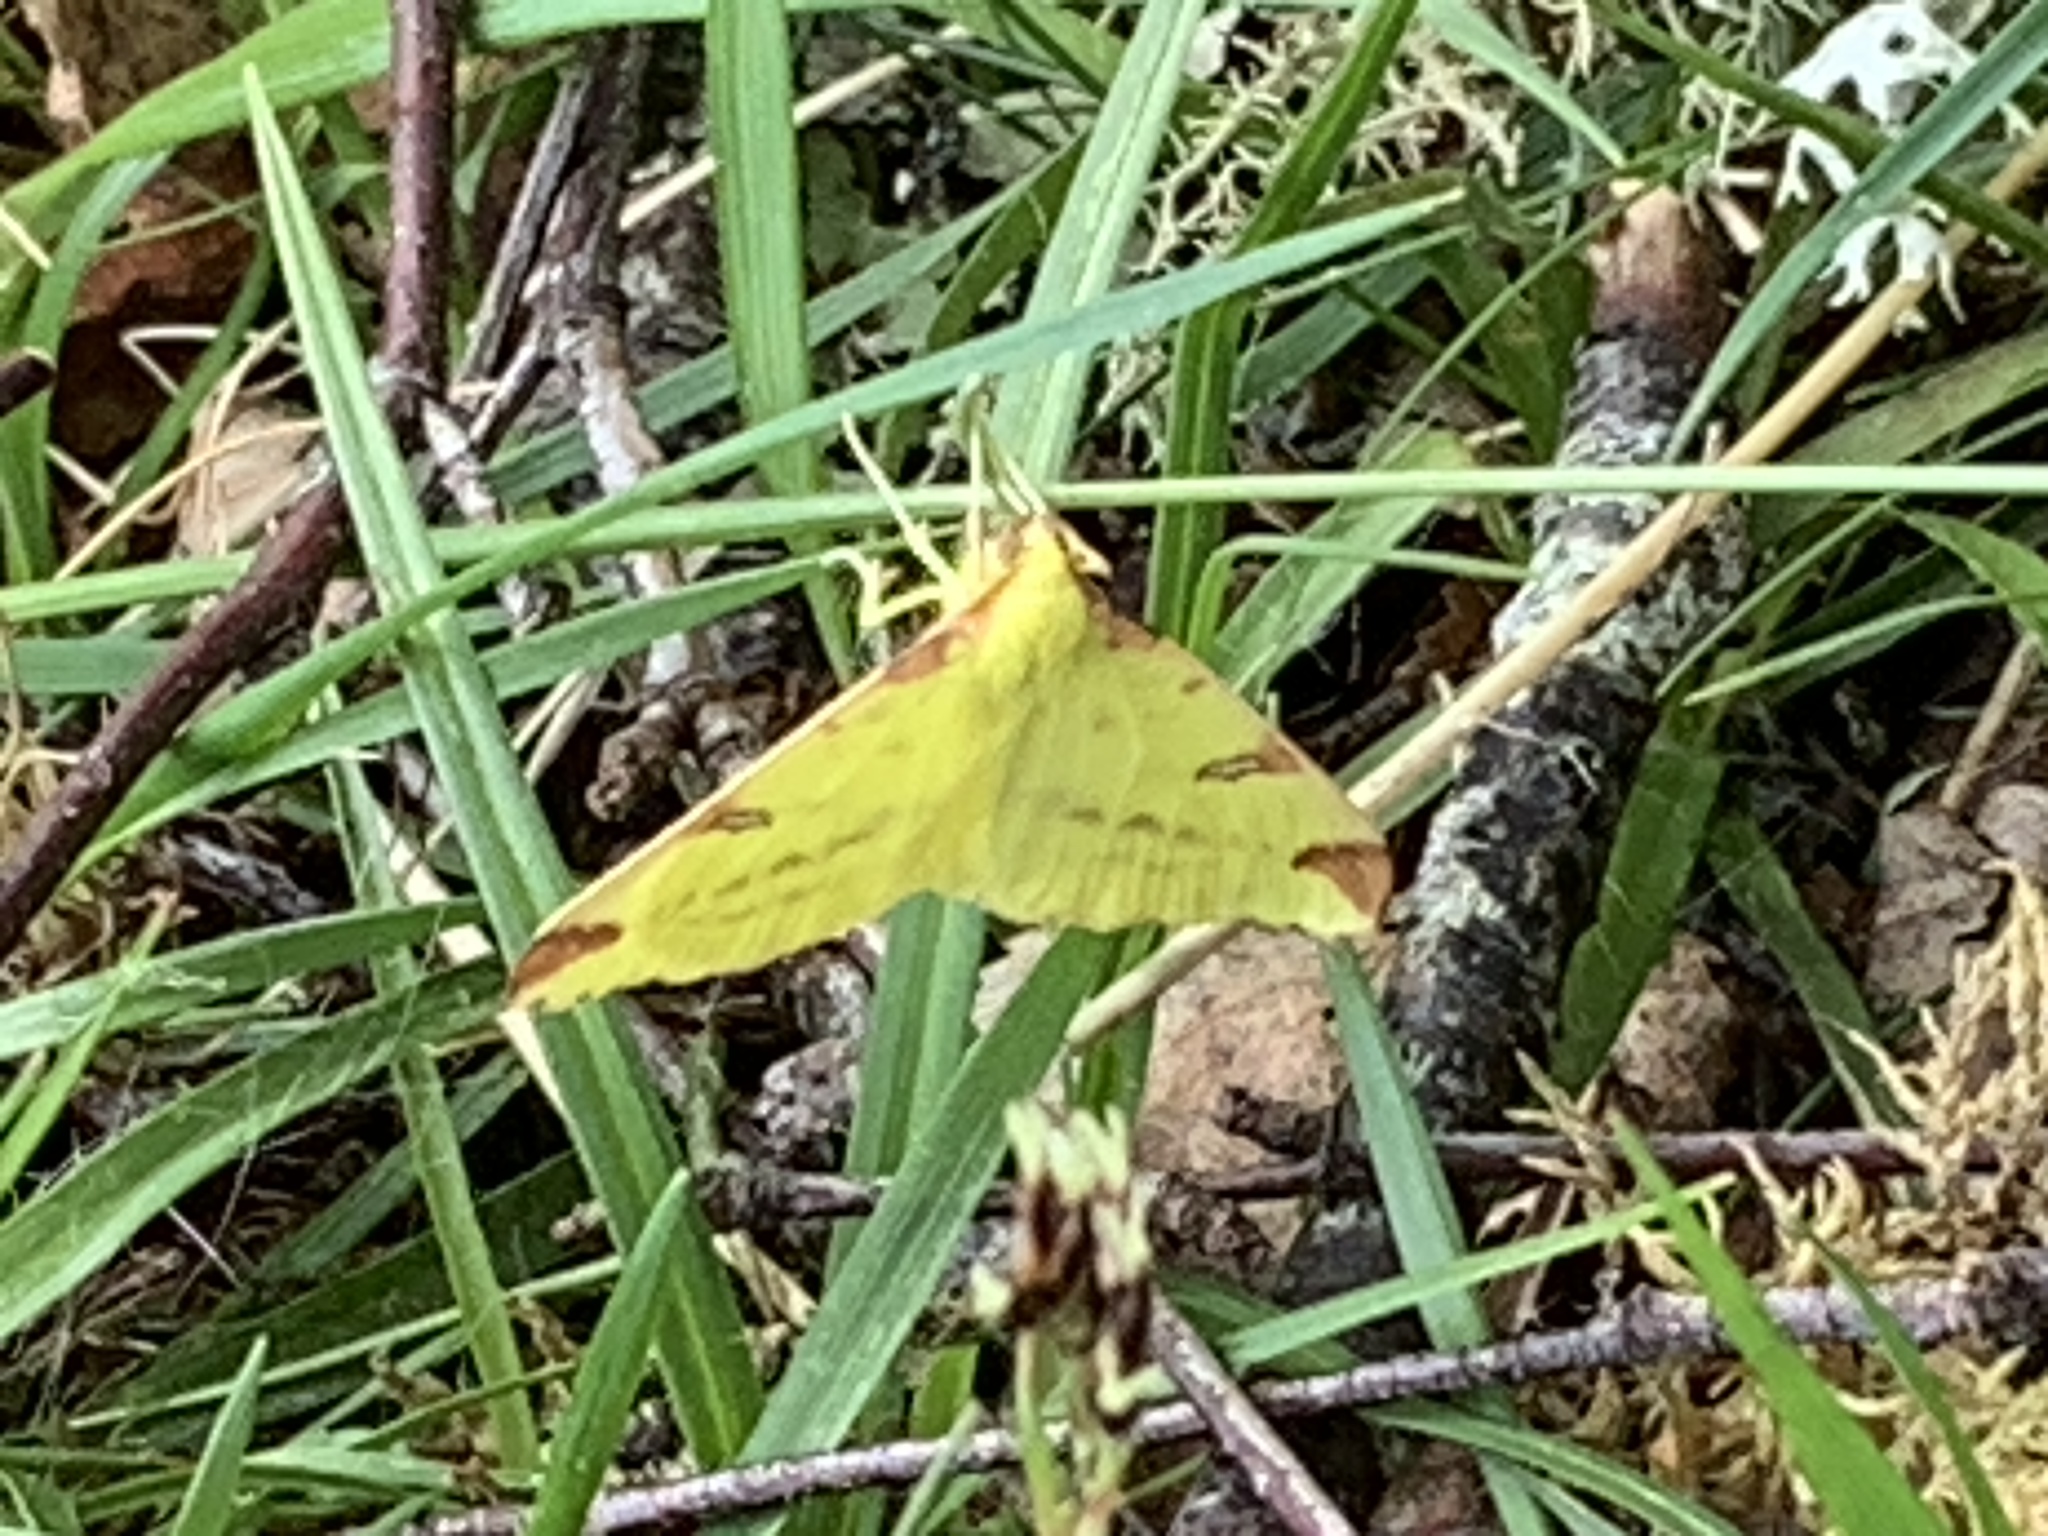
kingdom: Animalia
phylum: Arthropoda
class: Insecta
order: Lepidoptera
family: Geometridae
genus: Opisthograptis
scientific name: Opisthograptis luteolata
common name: Brimstone moth
